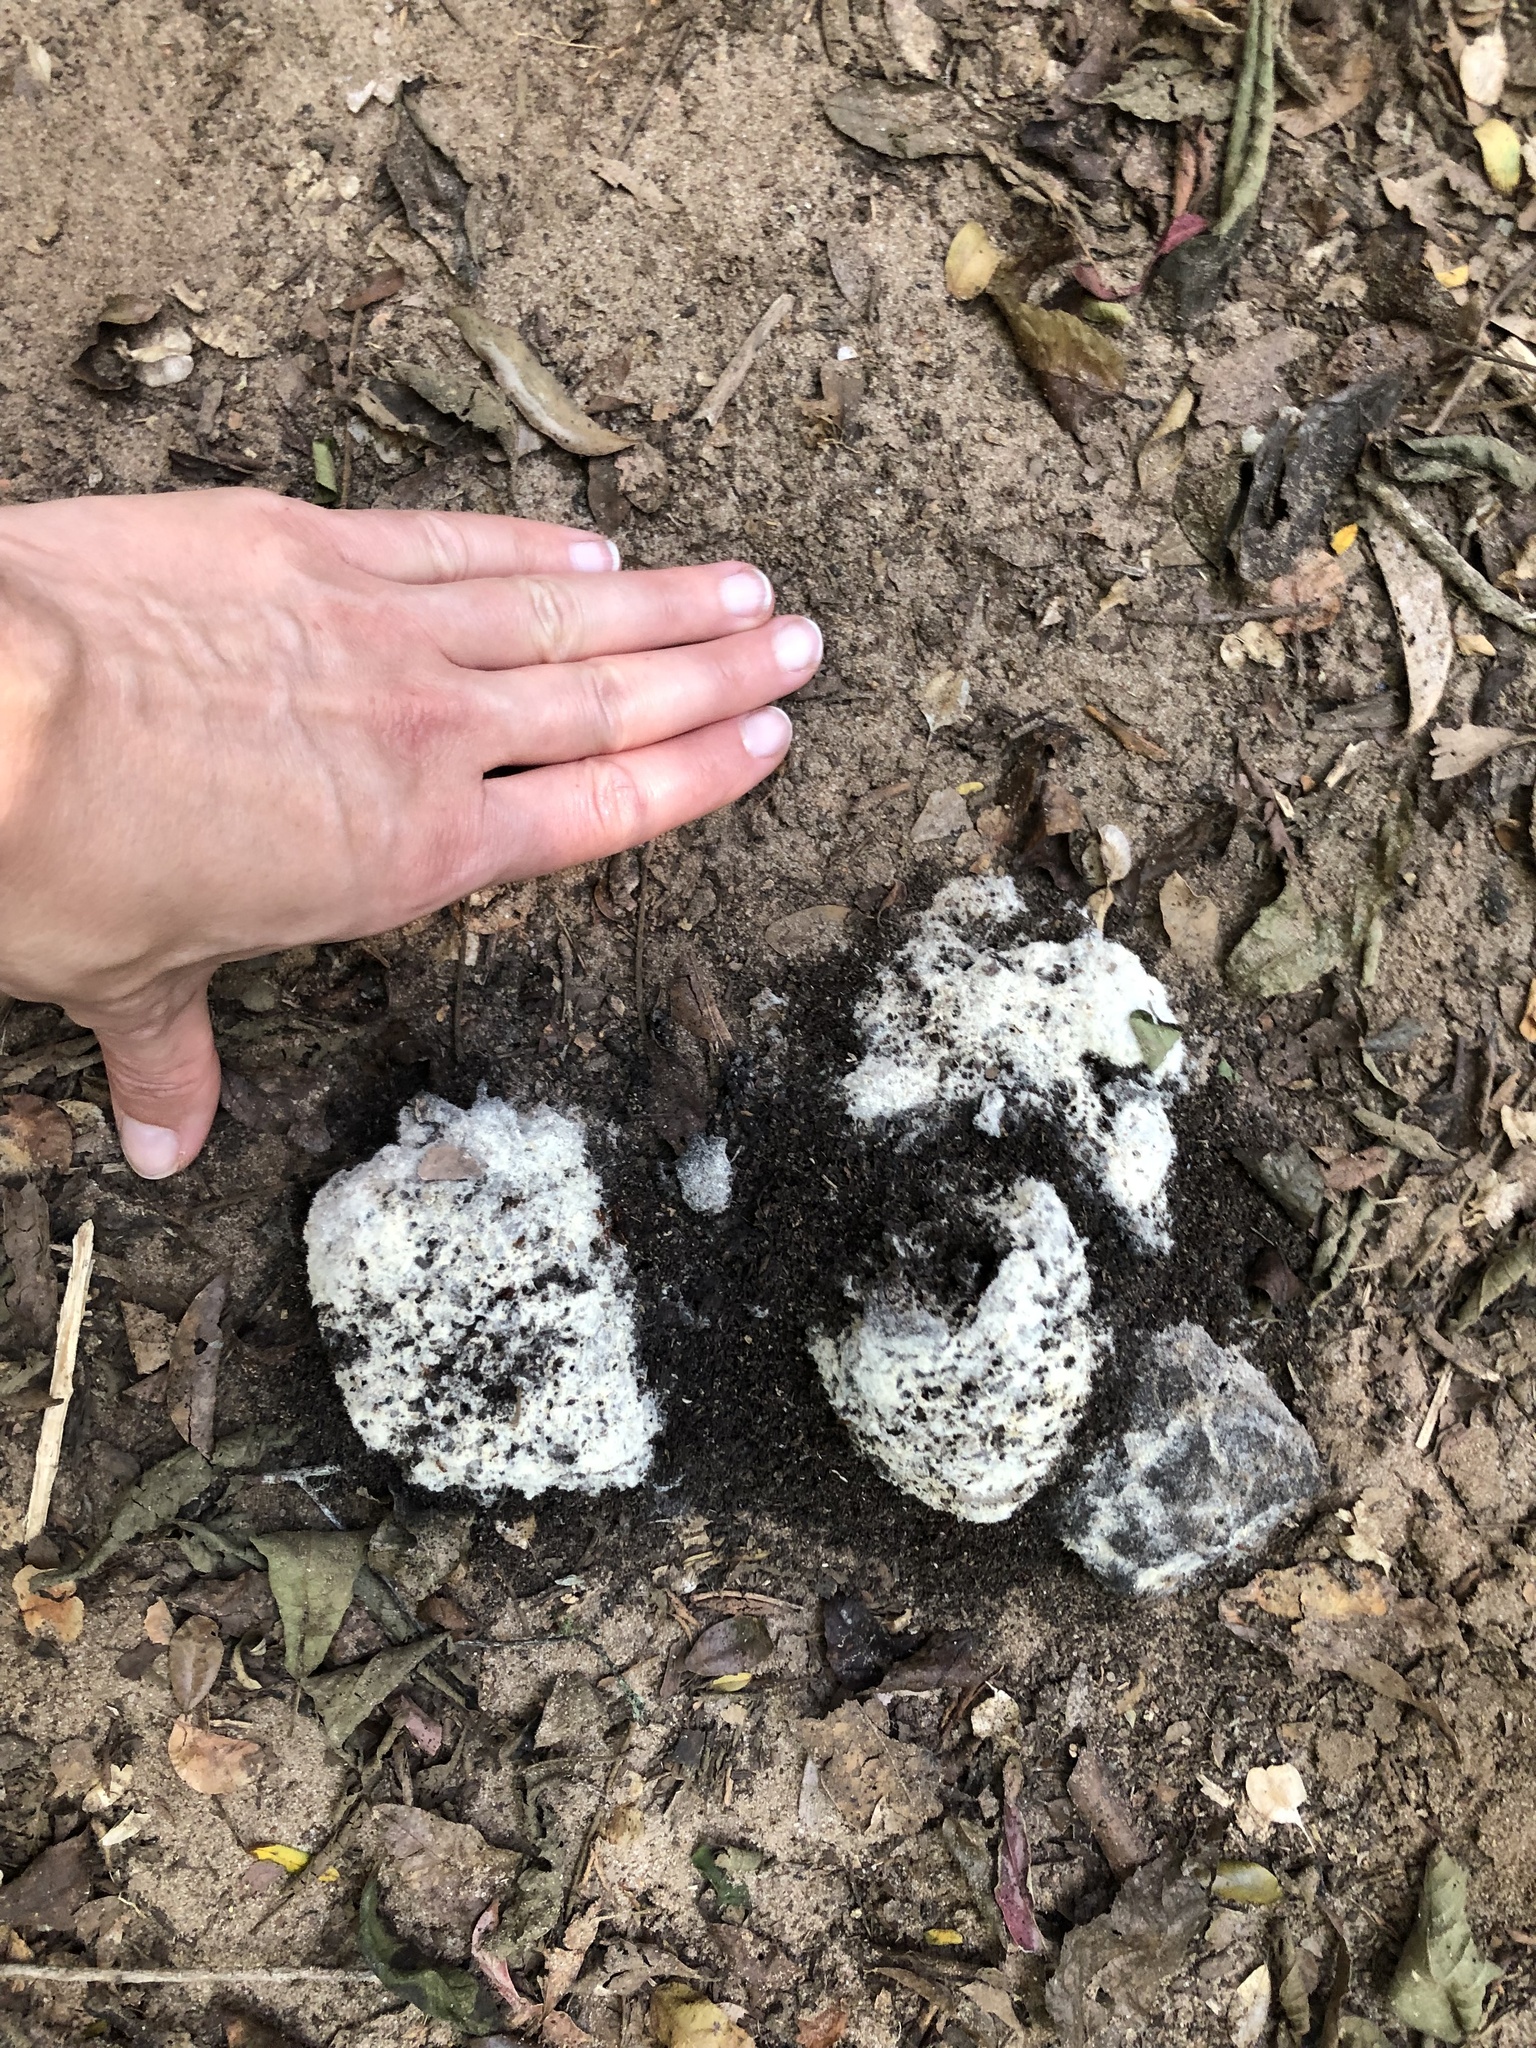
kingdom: Animalia
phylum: Chordata
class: Mammalia
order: Artiodactyla
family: Suidae
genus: Potamochoerus
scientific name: Potamochoerus larvatus
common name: Bushpig
